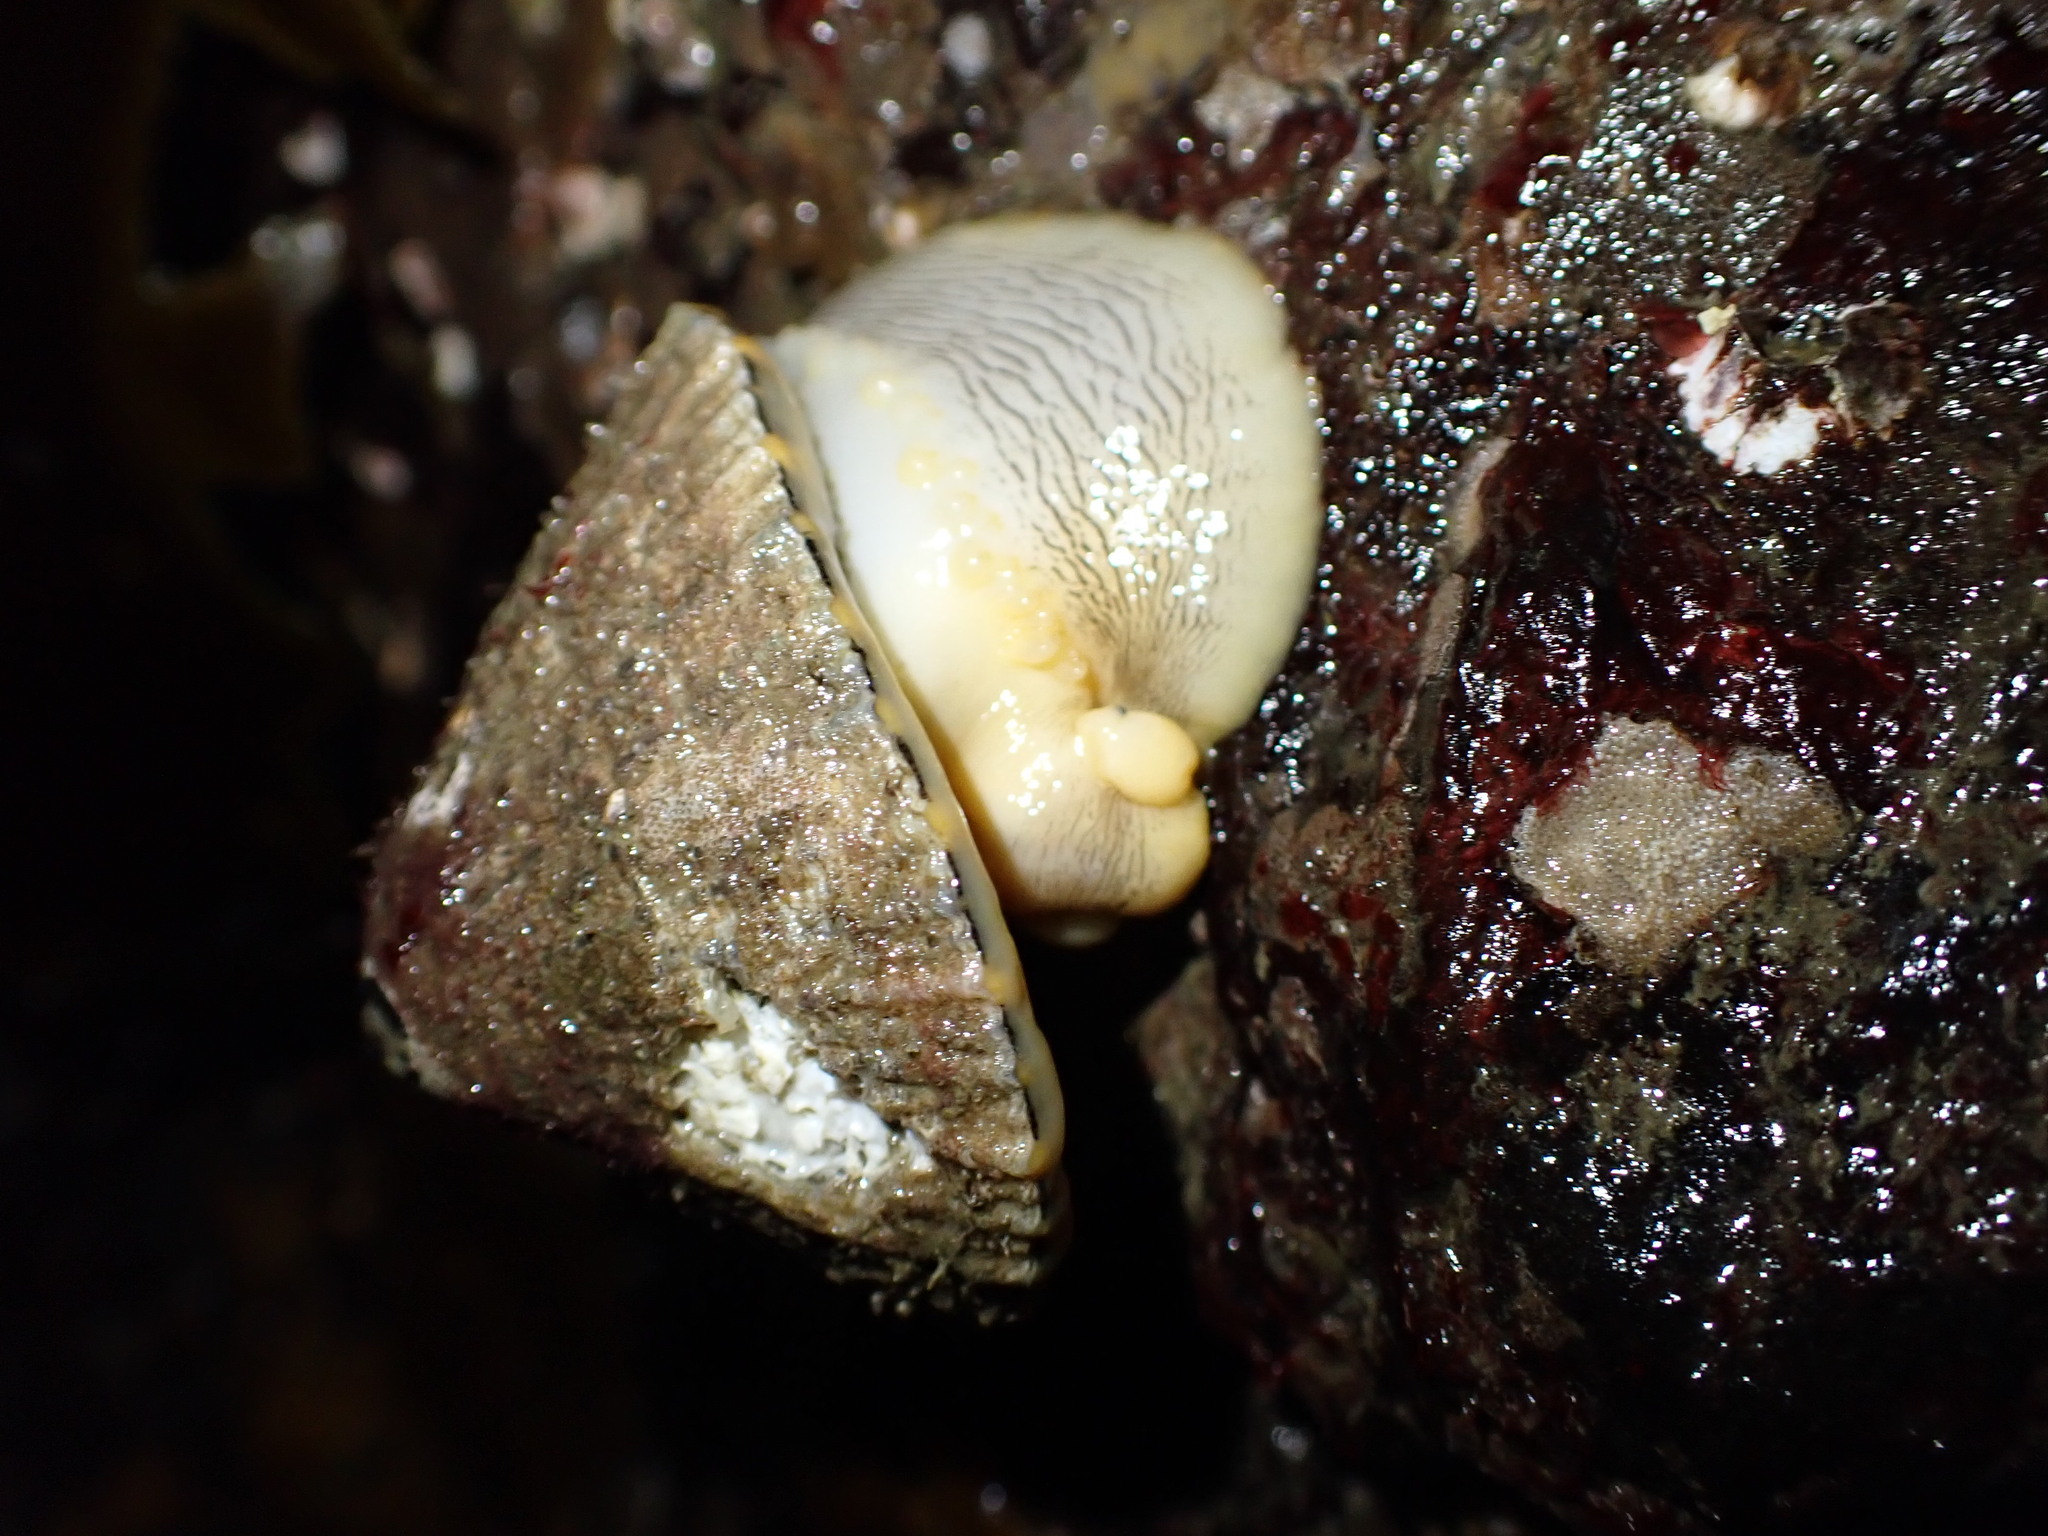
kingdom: Animalia
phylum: Mollusca
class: Gastropoda
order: Lepetellida
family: Fissurellidae
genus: Diodora
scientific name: Diodora aspera
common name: Rough keyhole limpet
